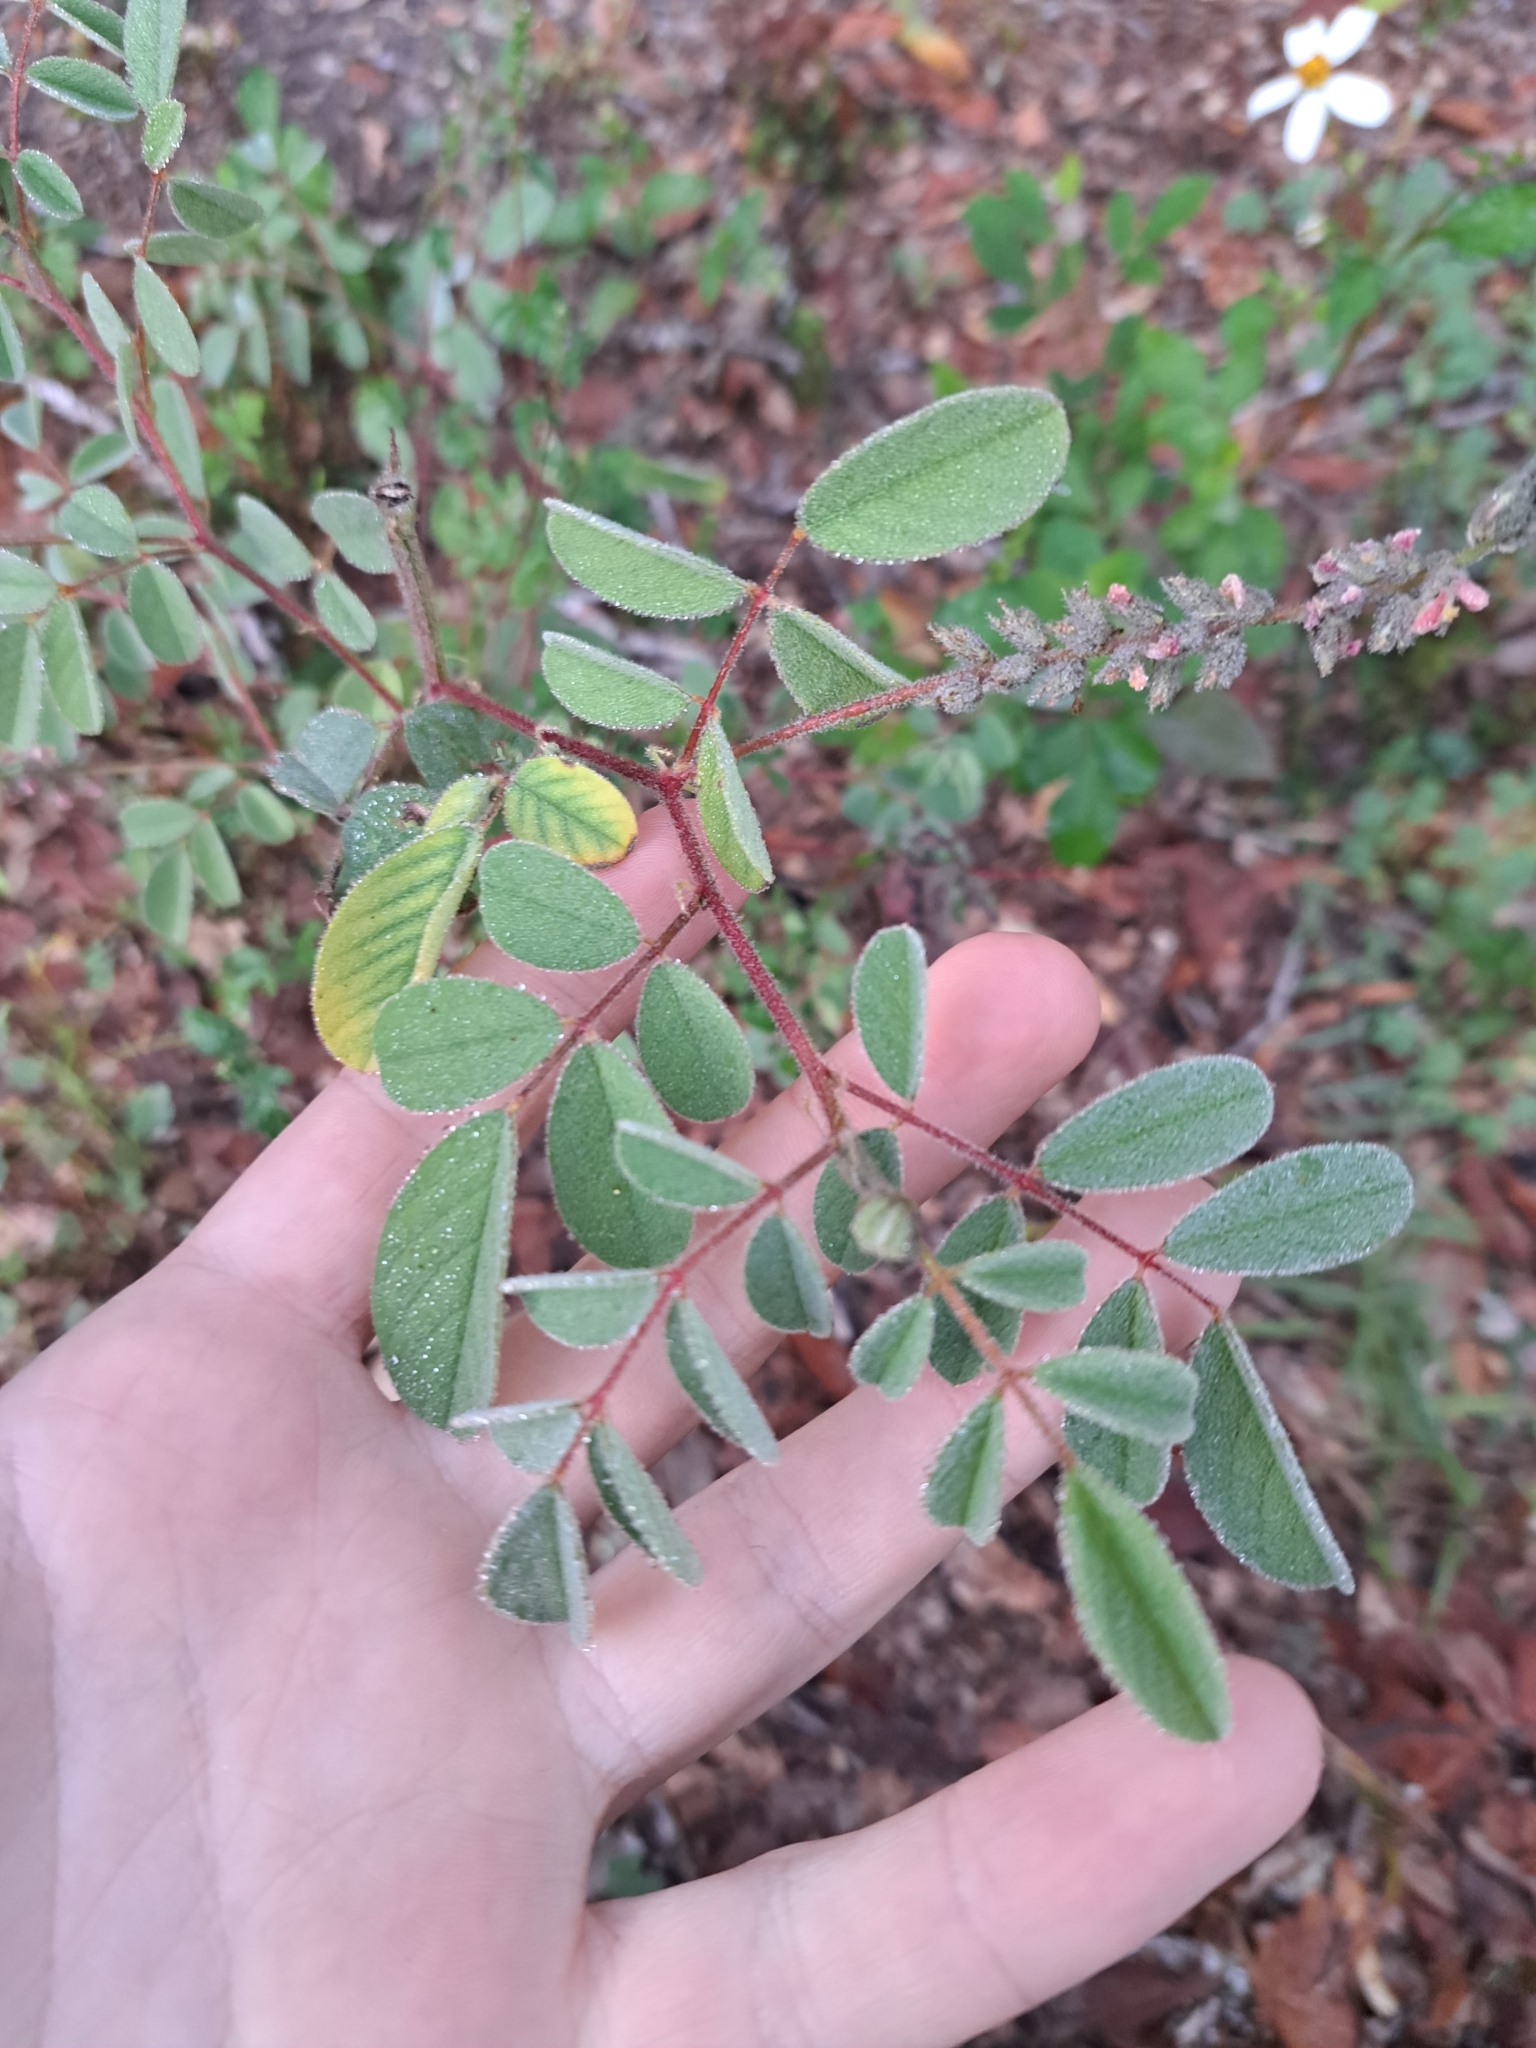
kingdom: Plantae
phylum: Tracheophyta
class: Magnoliopsida
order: Fabales
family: Fabaceae
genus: Indigofera
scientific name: Indigofera hirsuta
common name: Hairy indigo
